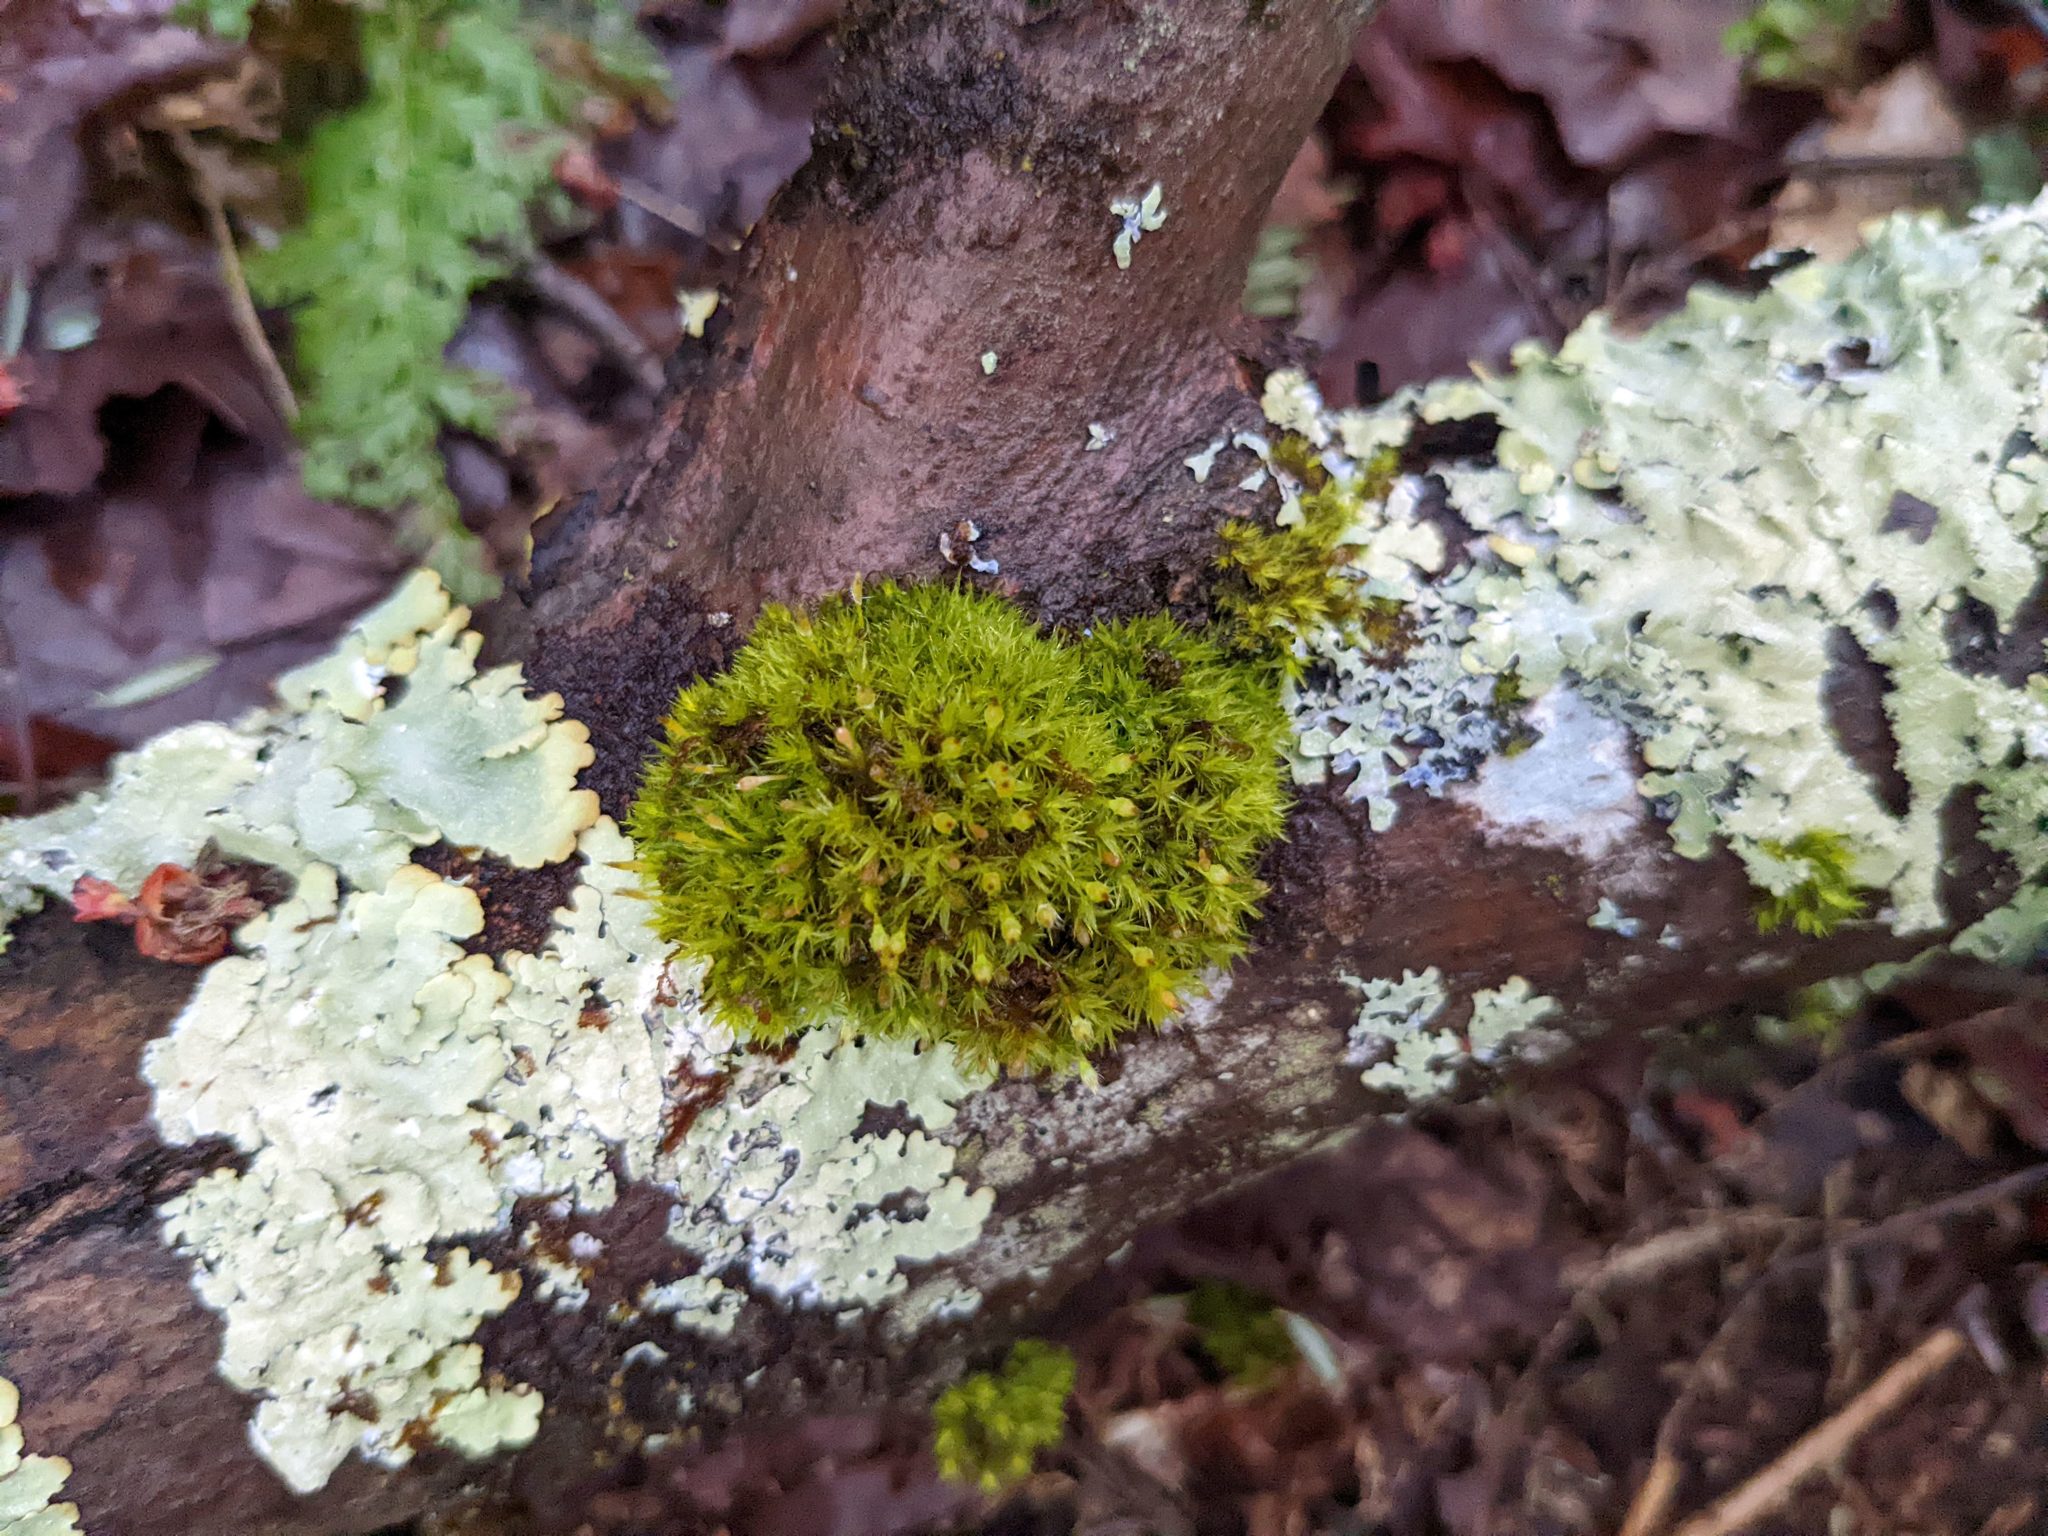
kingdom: Plantae
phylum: Bryophyta
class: Bryopsida
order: Orthotrichales
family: Orthotrichaceae
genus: Ulota
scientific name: Ulota crispa
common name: Crisped pincushion moss
